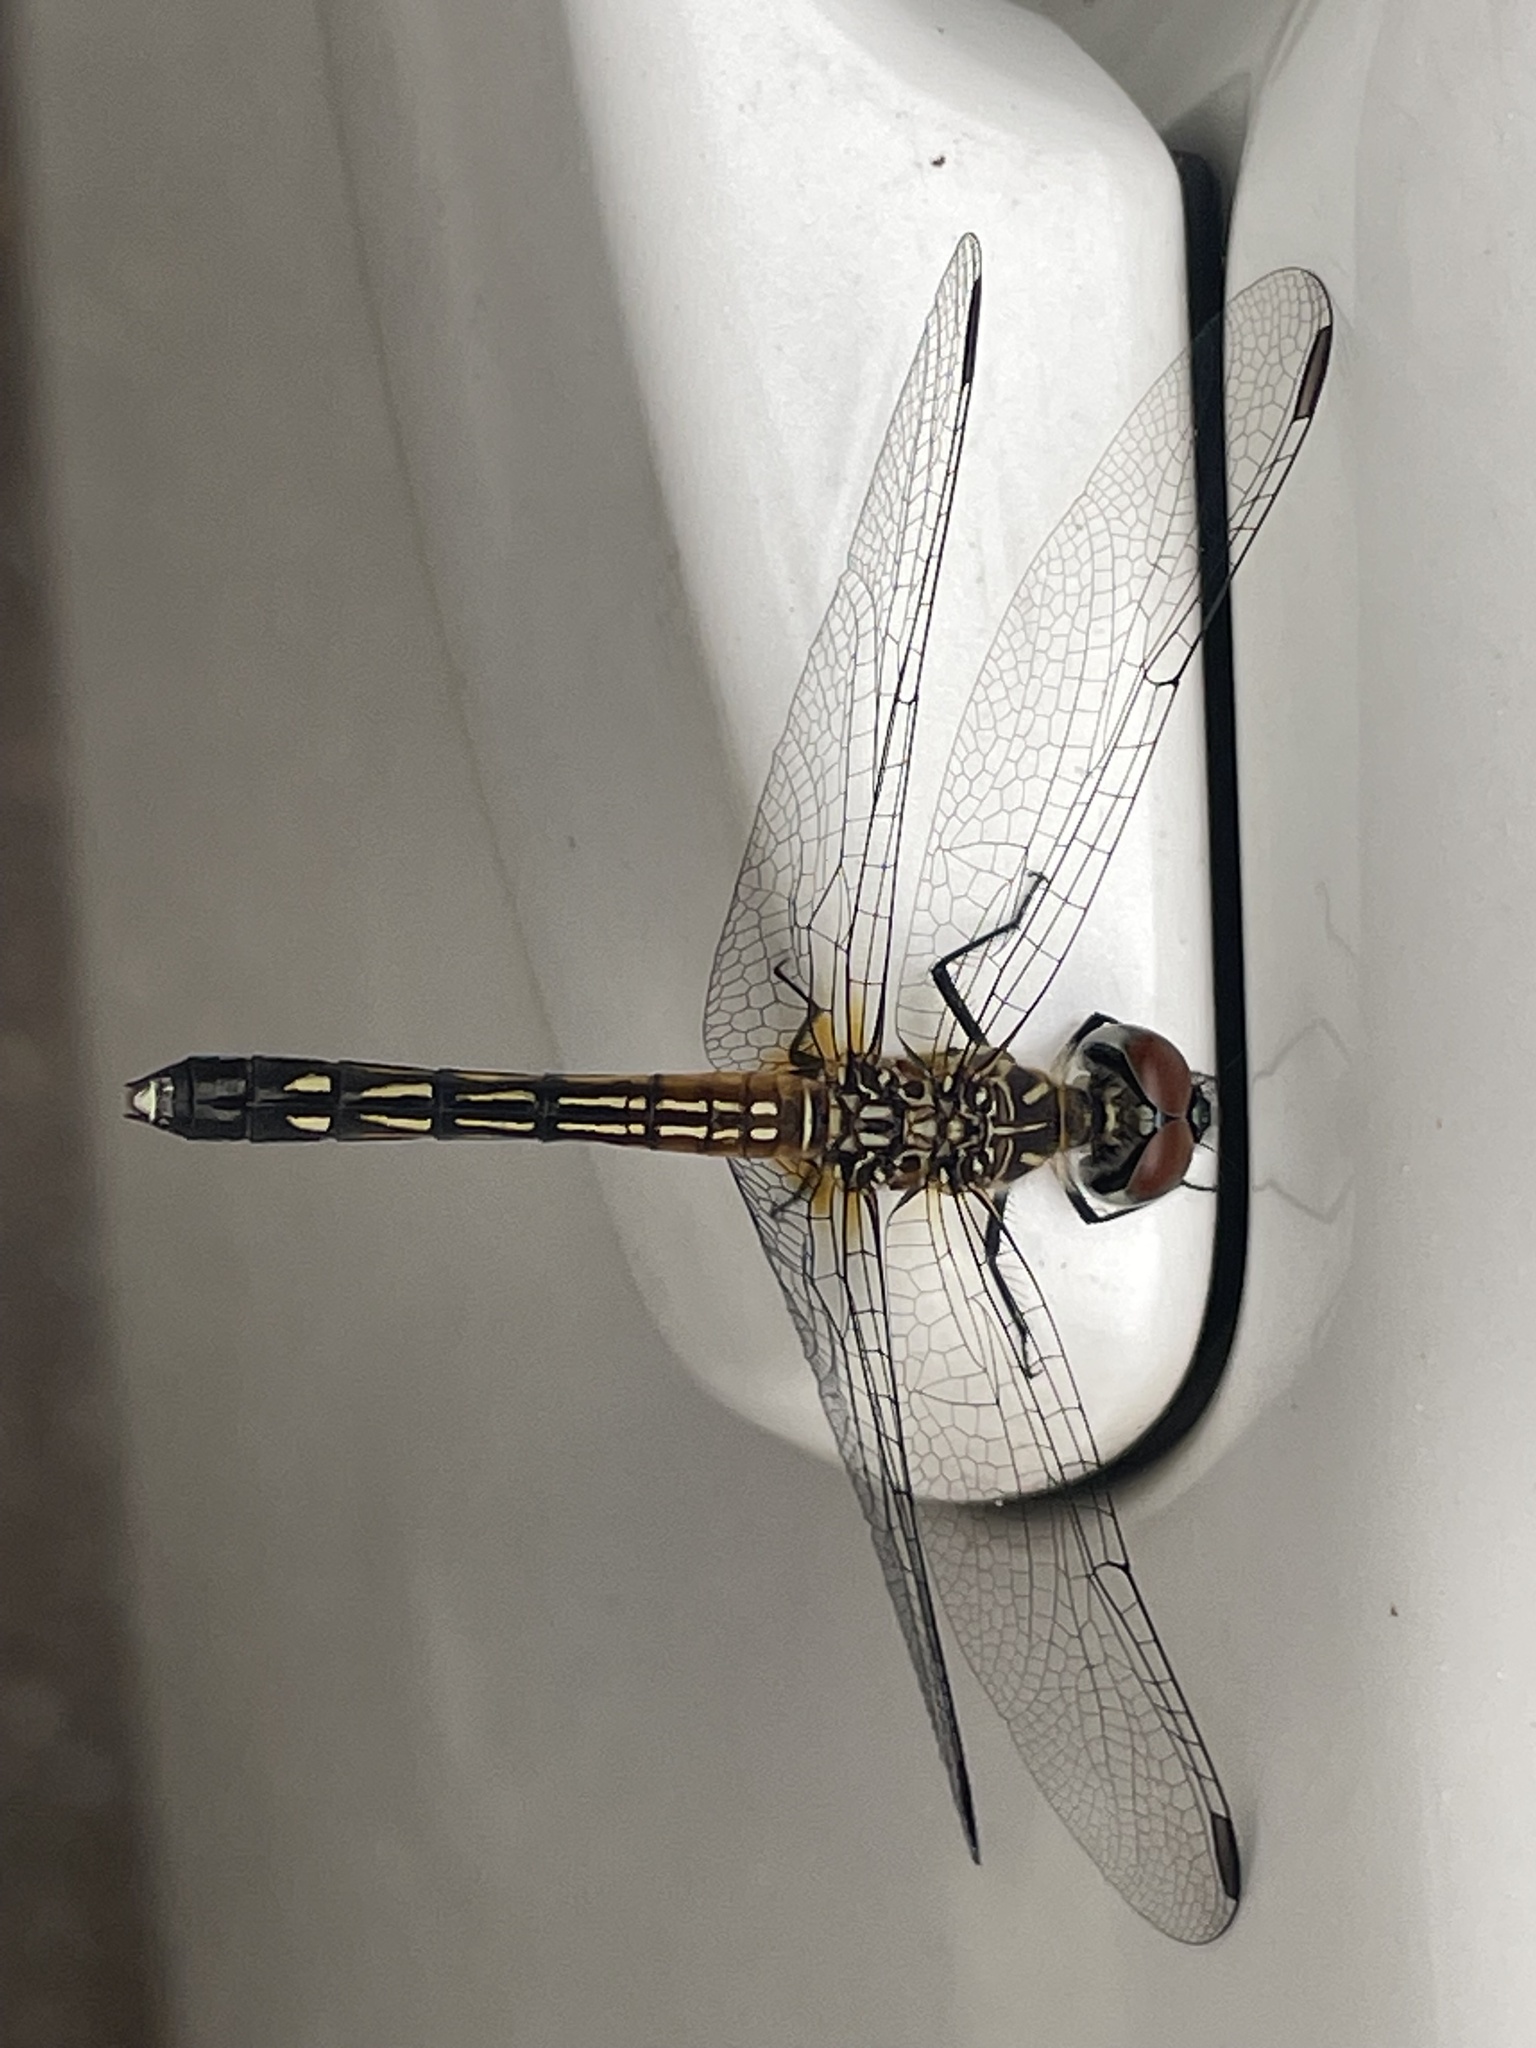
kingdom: Animalia
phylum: Arthropoda
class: Insecta
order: Odonata
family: Libellulidae
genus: Pachydiplax
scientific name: Pachydiplax longipennis
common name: Blue dasher
